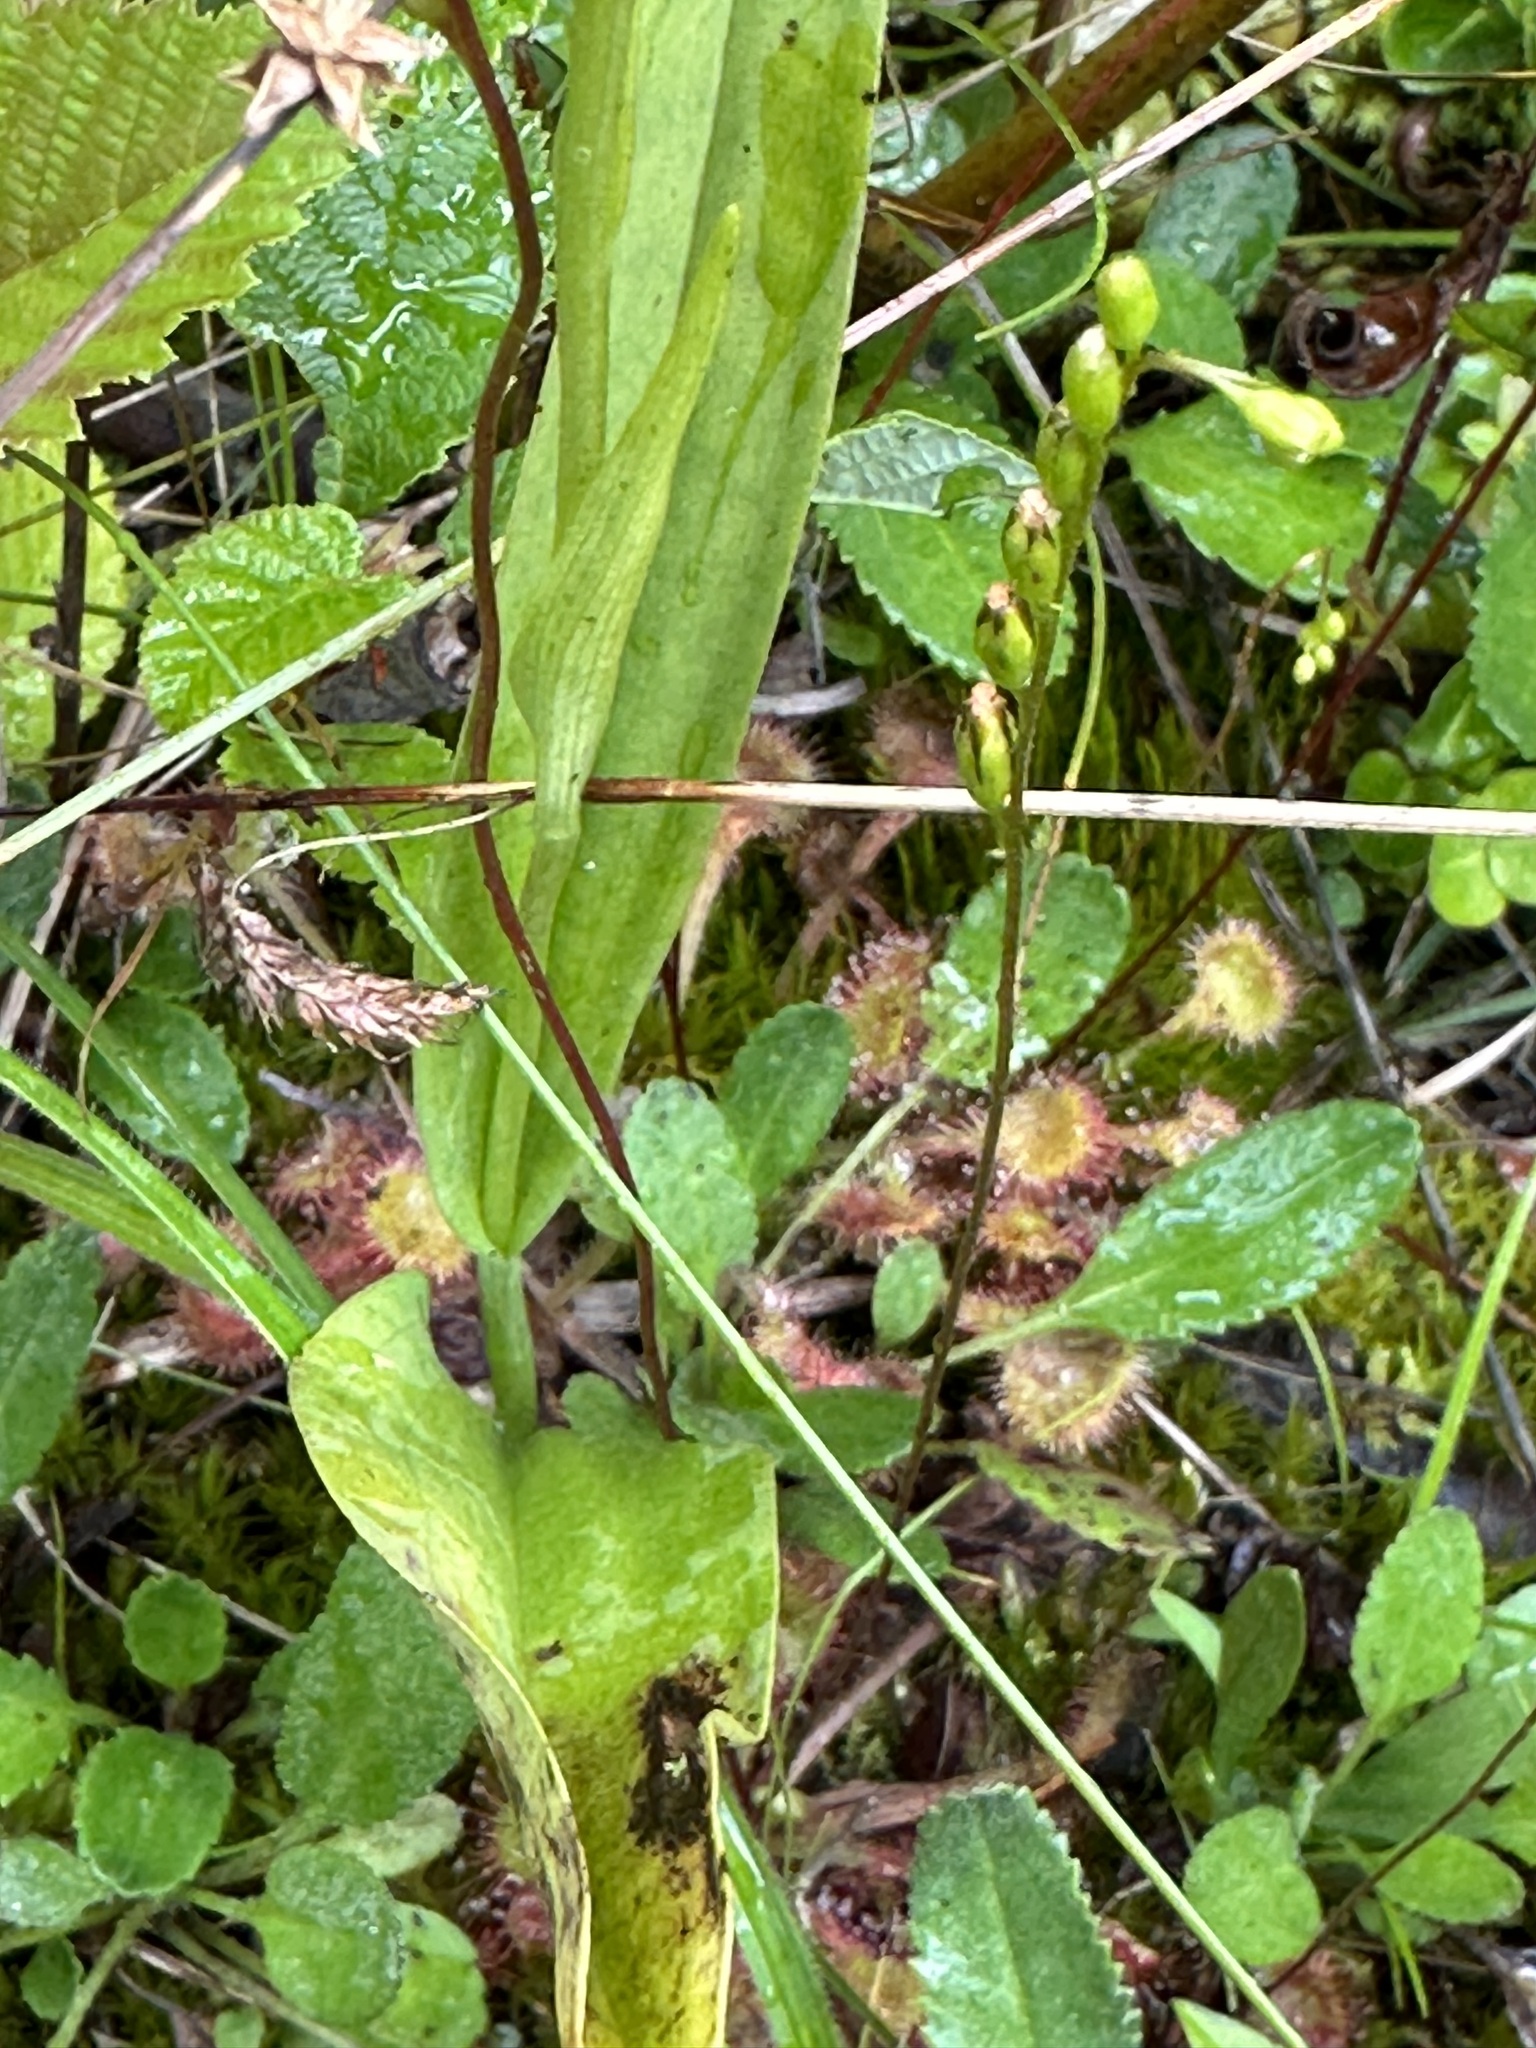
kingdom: Plantae
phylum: Tracheophyta
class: Magnoliopsida
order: Caryophyllales
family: Droseraceae
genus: Drosera
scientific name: Drosera rotundifolia
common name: Round-leaved sundew
